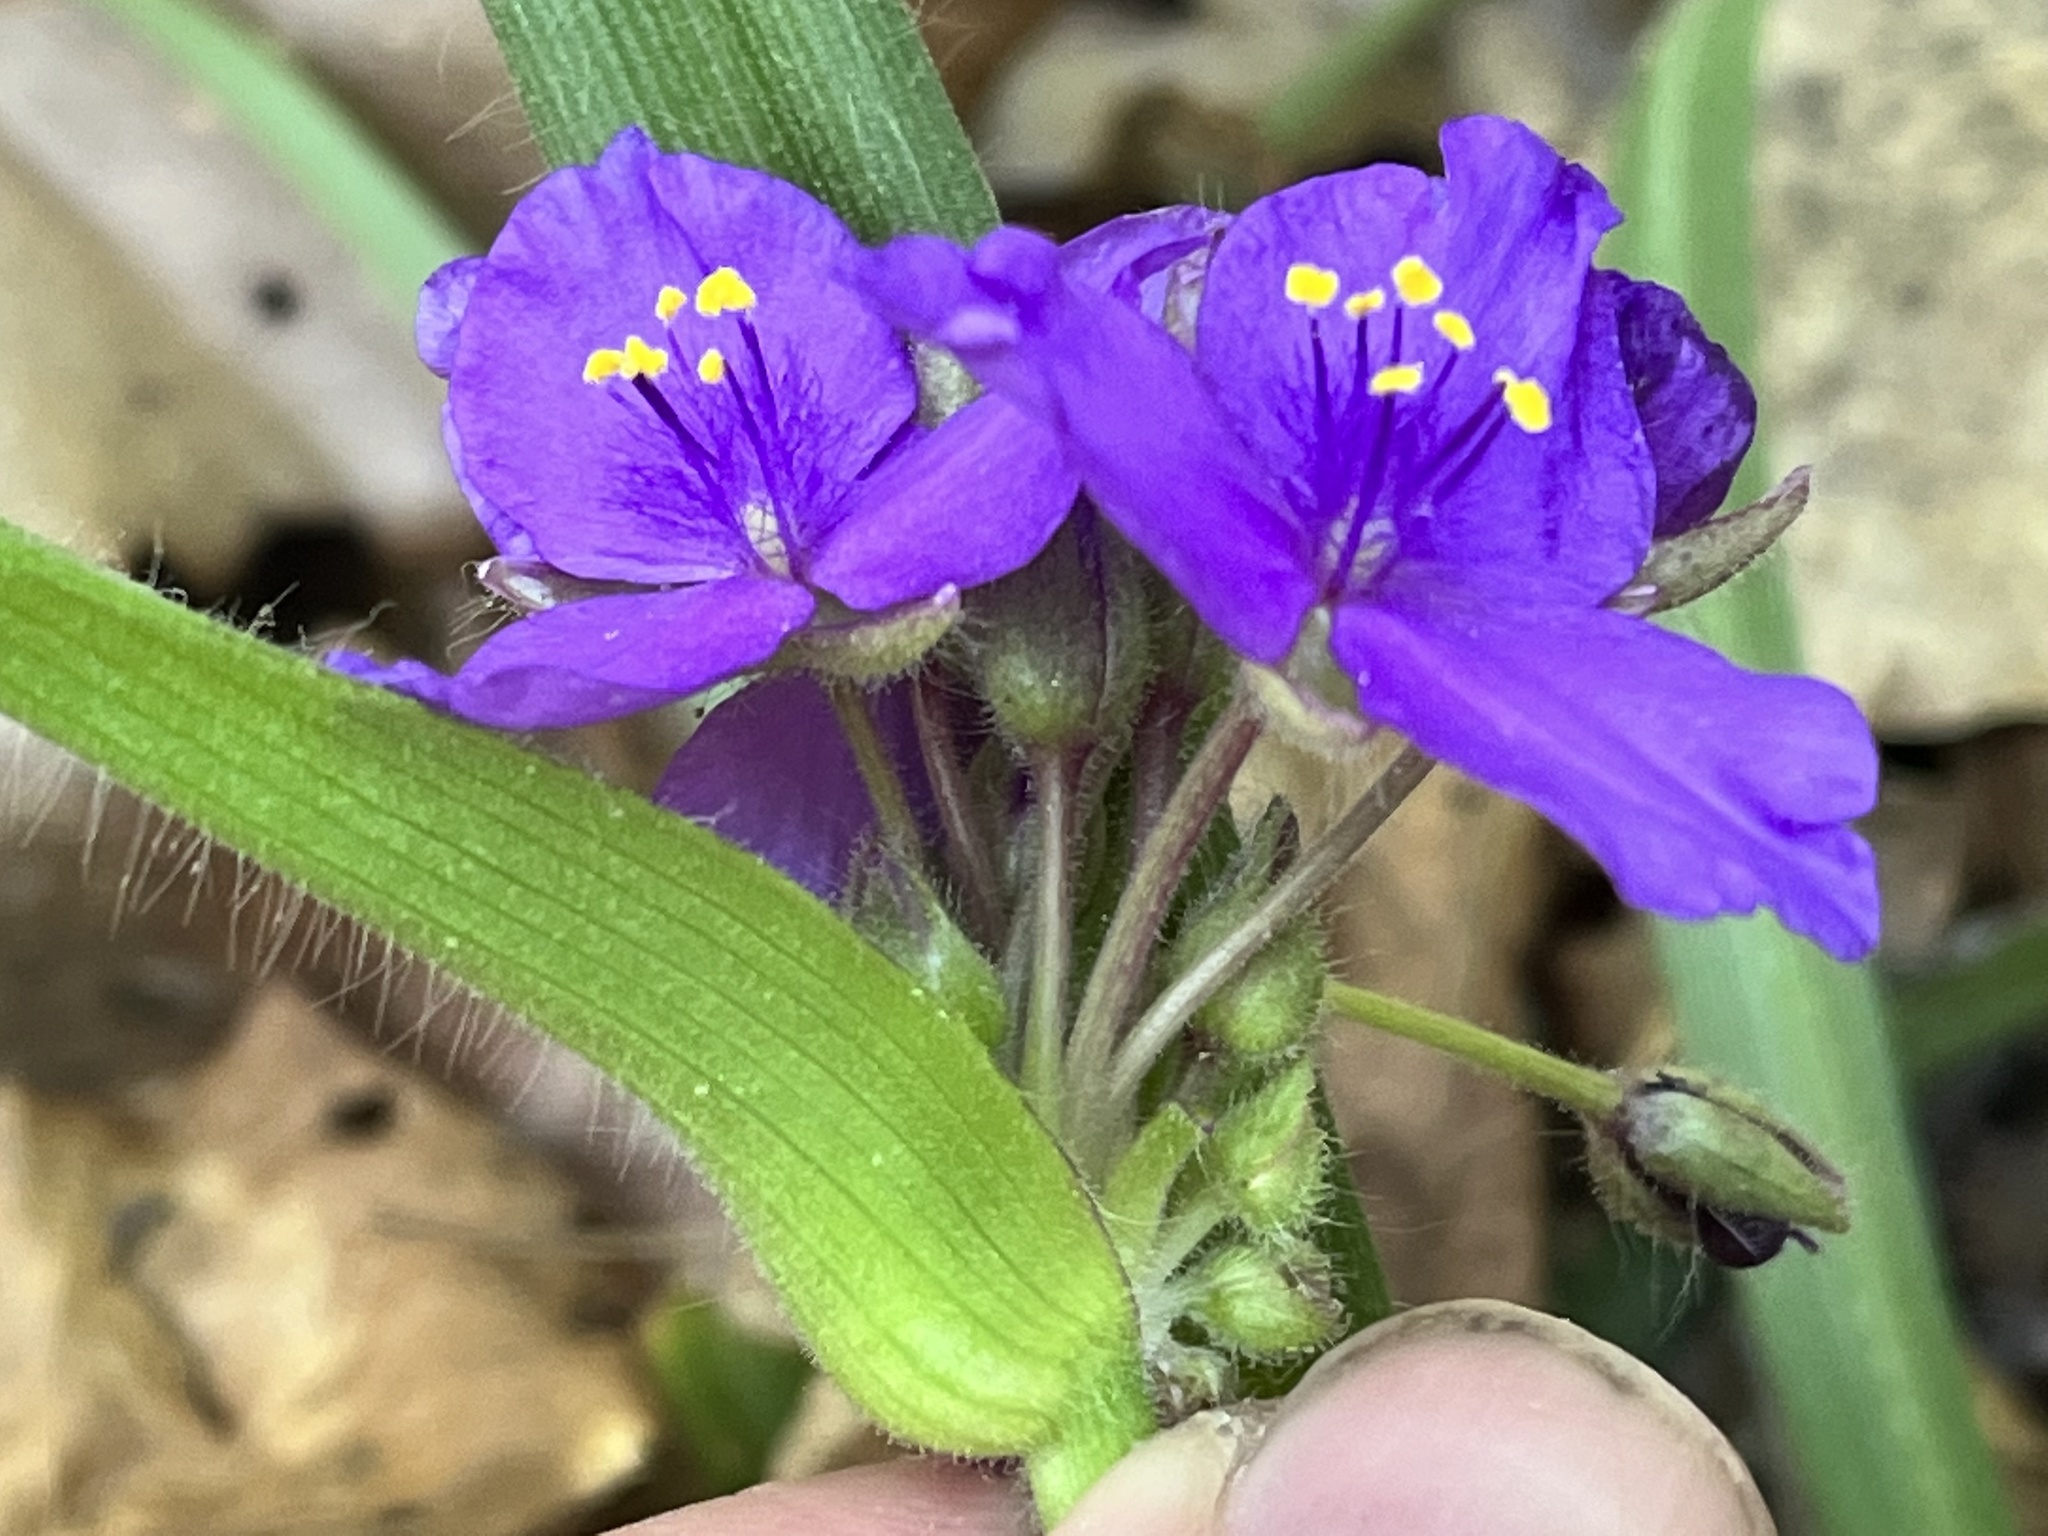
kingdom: Plantae
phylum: Tracheophyta
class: Liliopsida
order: Commelinales
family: Commelinaceae
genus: Tradescantia
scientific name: Tradescantia hirsuticaulis
